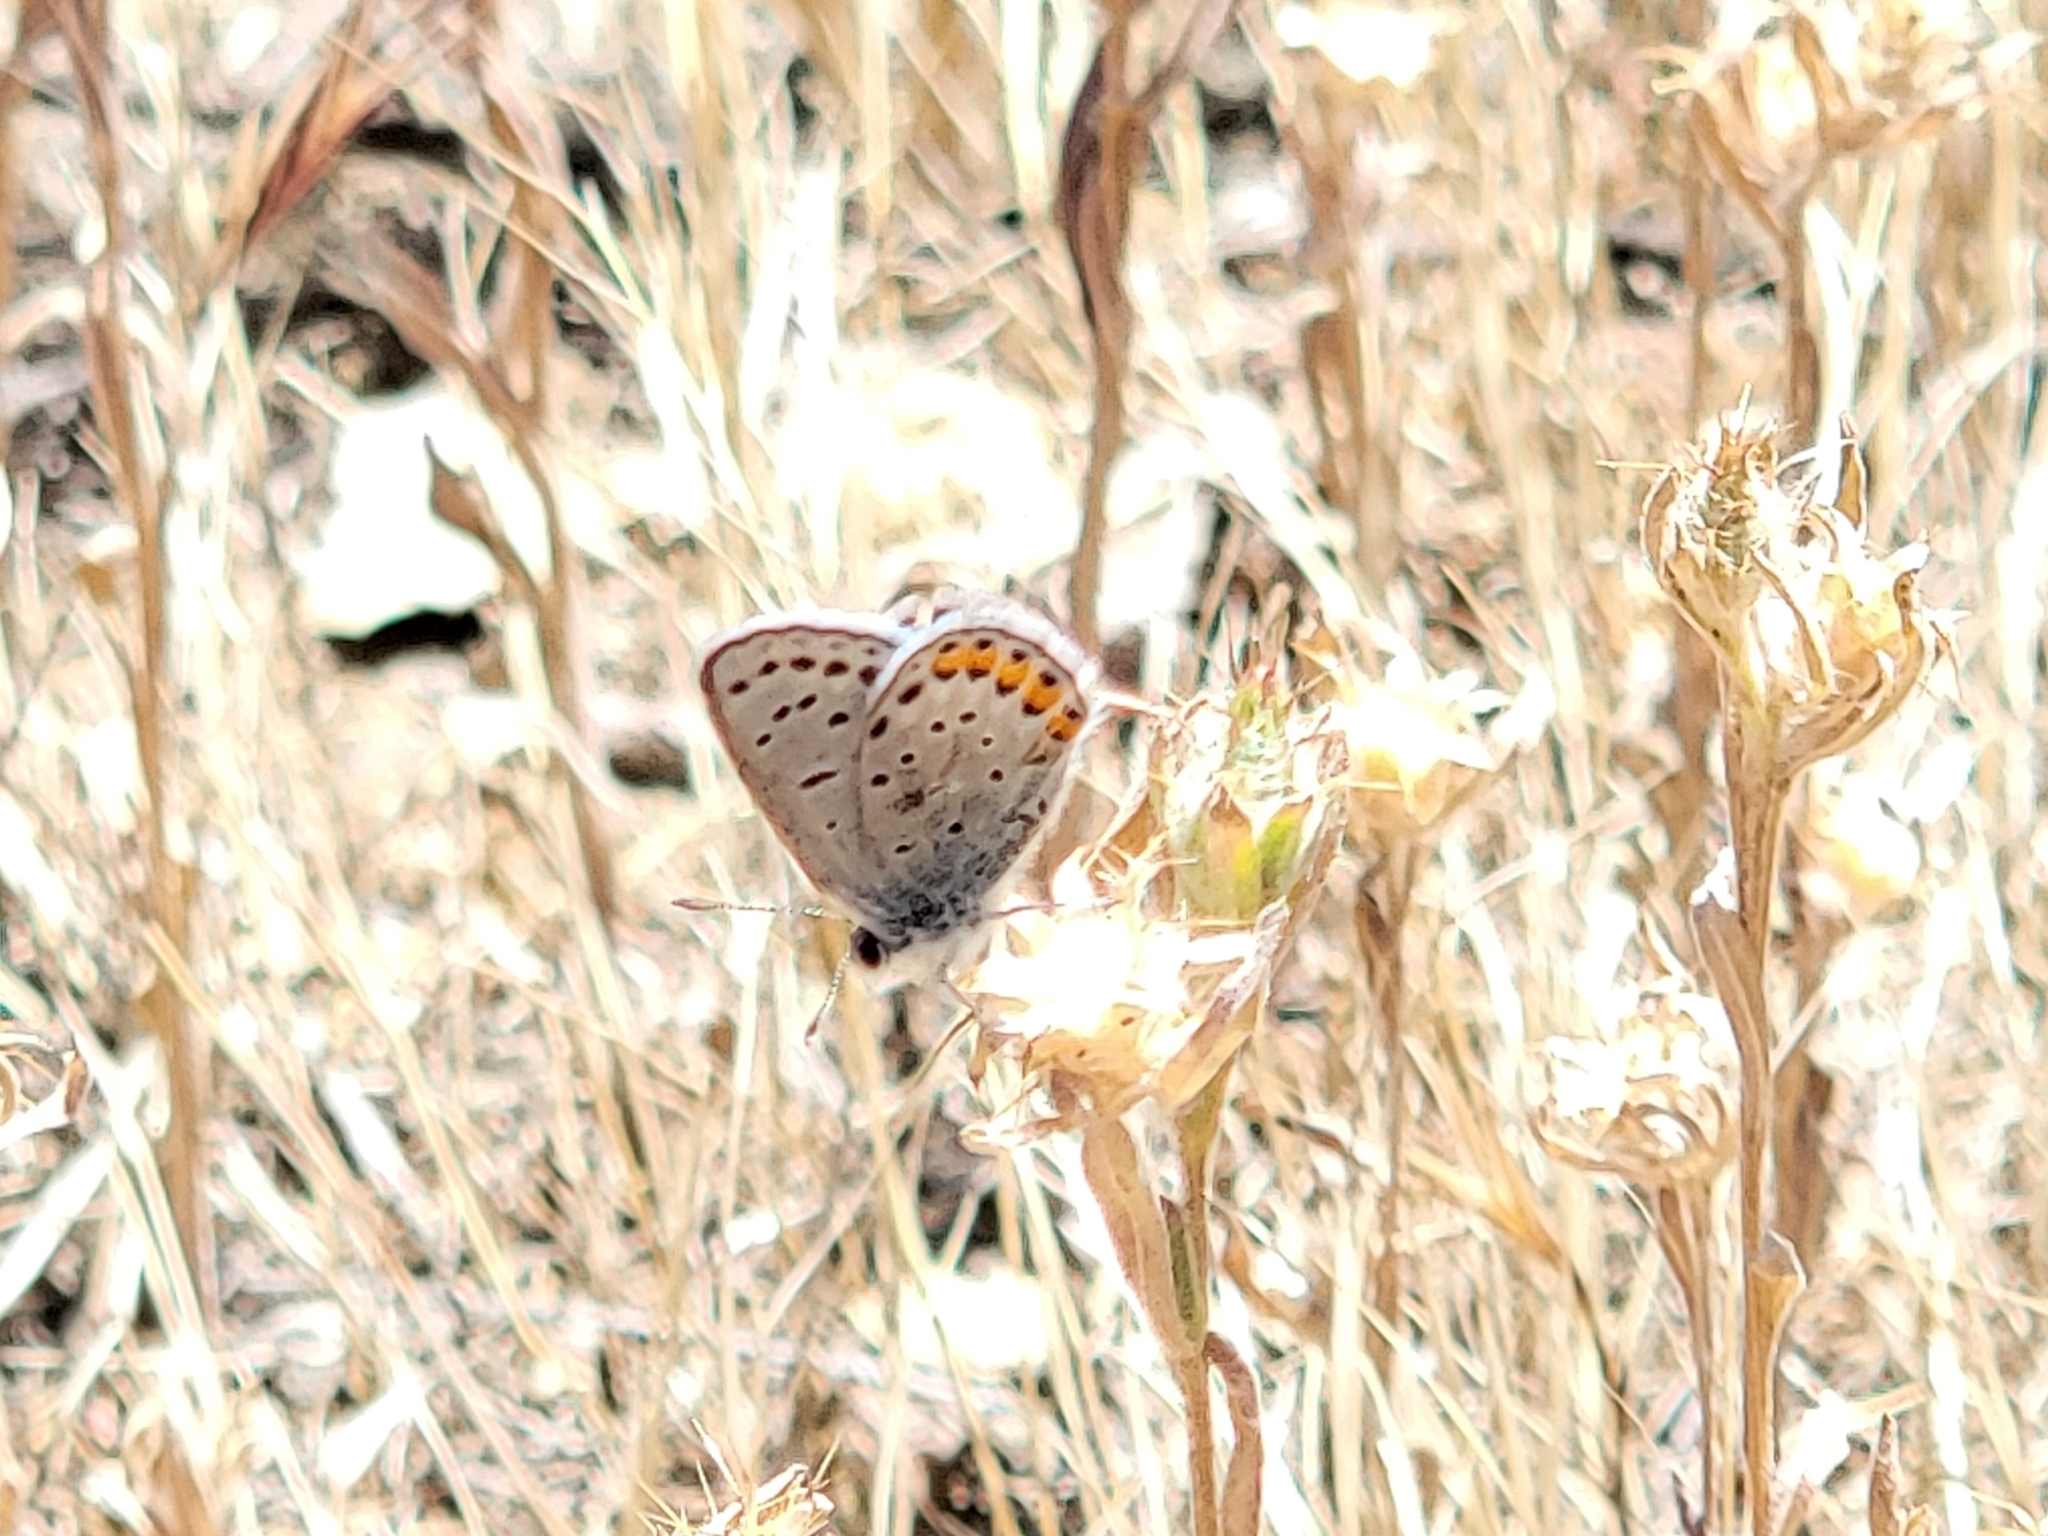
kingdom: Animalia
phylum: Arthropoda
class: Insecta
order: Lepidoptera
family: Lycaenidae
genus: Icaricia
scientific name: Icaricia acmon
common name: Acmon blue
